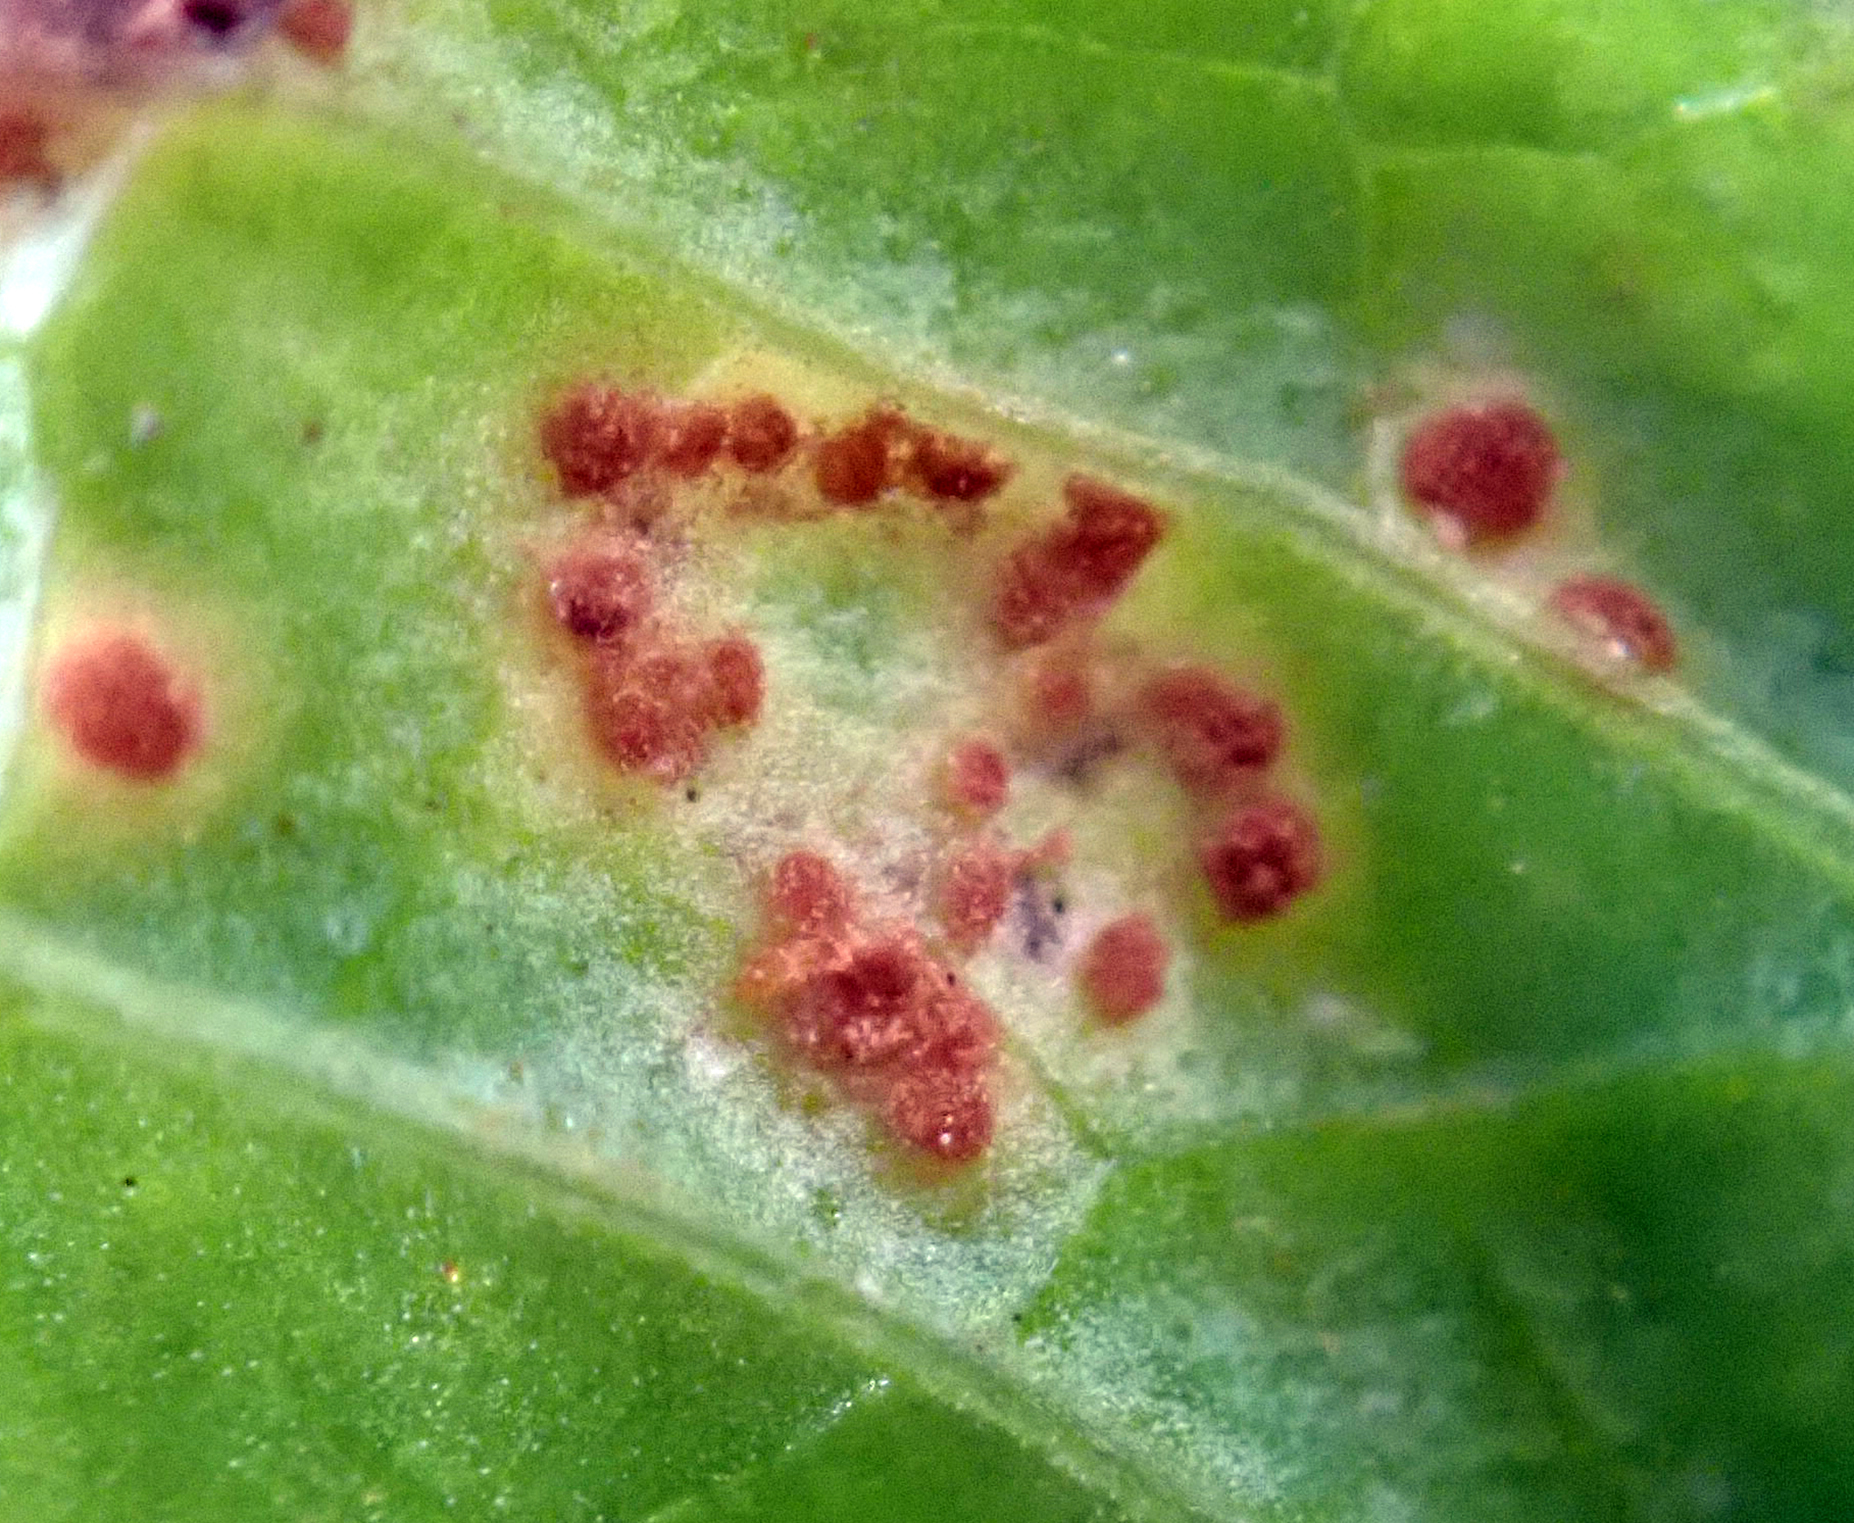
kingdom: Fungi
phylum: Basidiomycota
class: Pucciniomycetes
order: Pucciniales
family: Pucciniaceae
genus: Puccinia
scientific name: Puccinia menthae
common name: Mint rust
